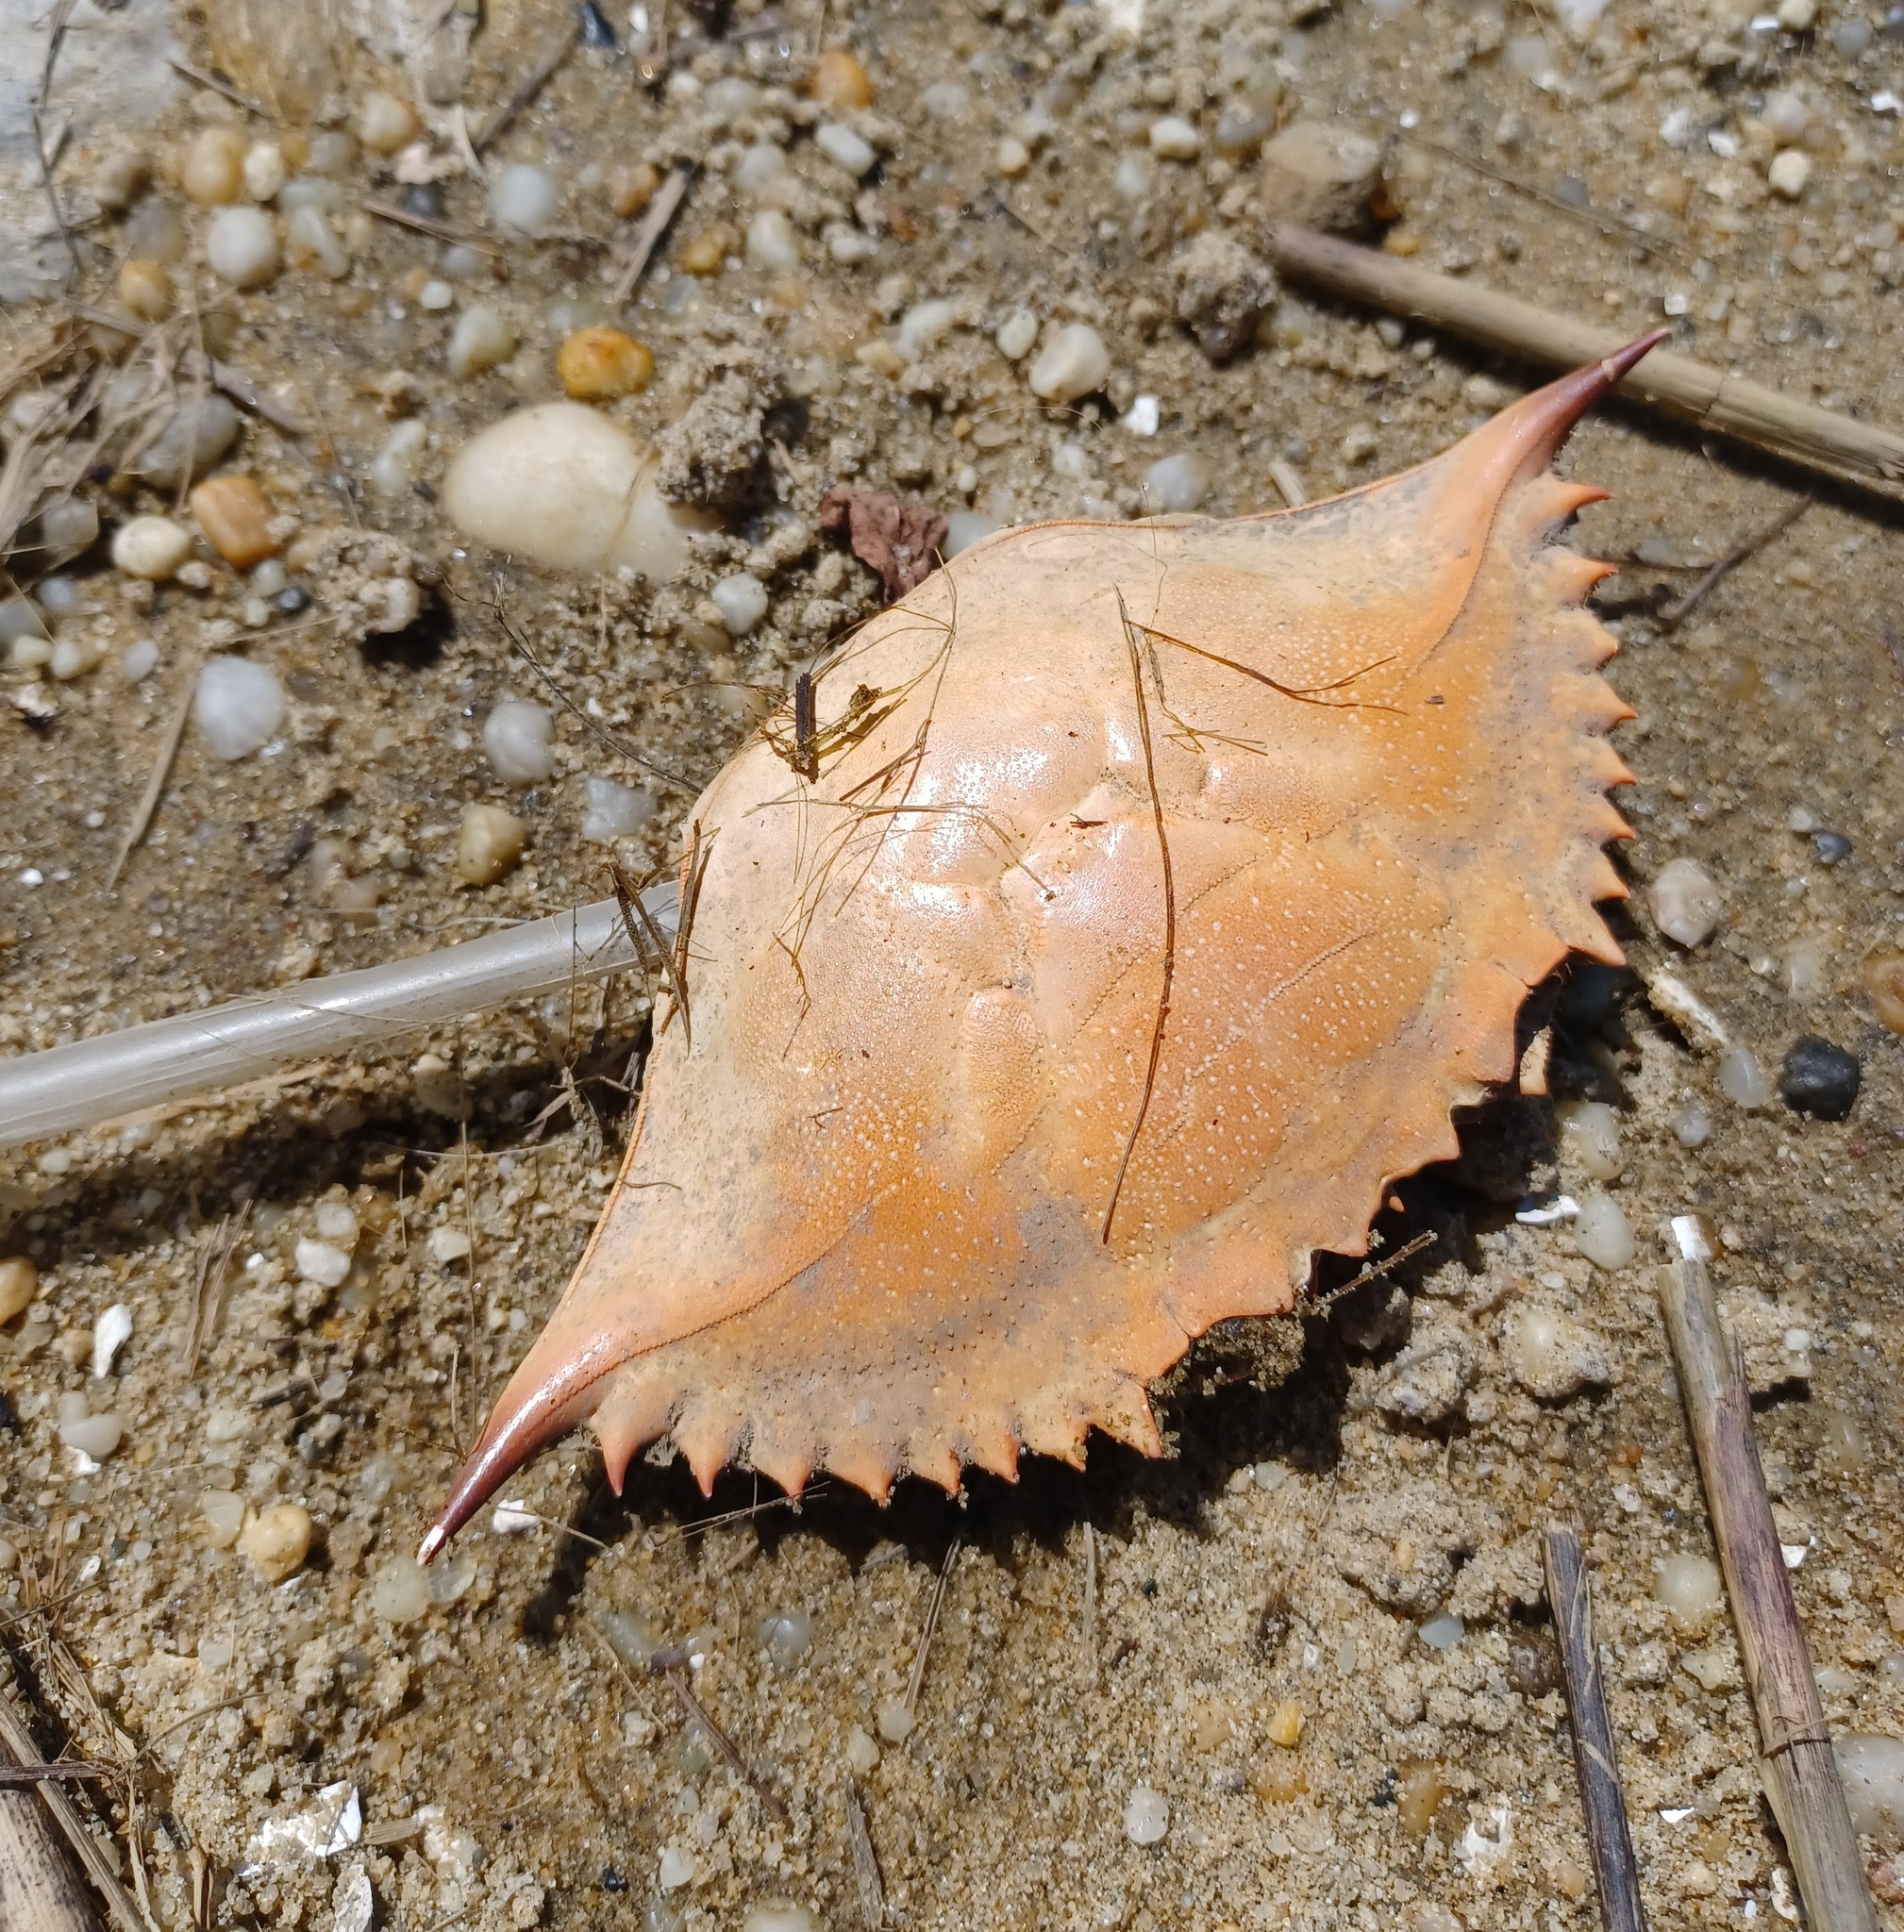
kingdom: Animalia
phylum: Arthropoda
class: Malacostraca
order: Decapoda
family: Portunidae
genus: Callinectes
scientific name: Callinectes sapidus
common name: Blue crab
